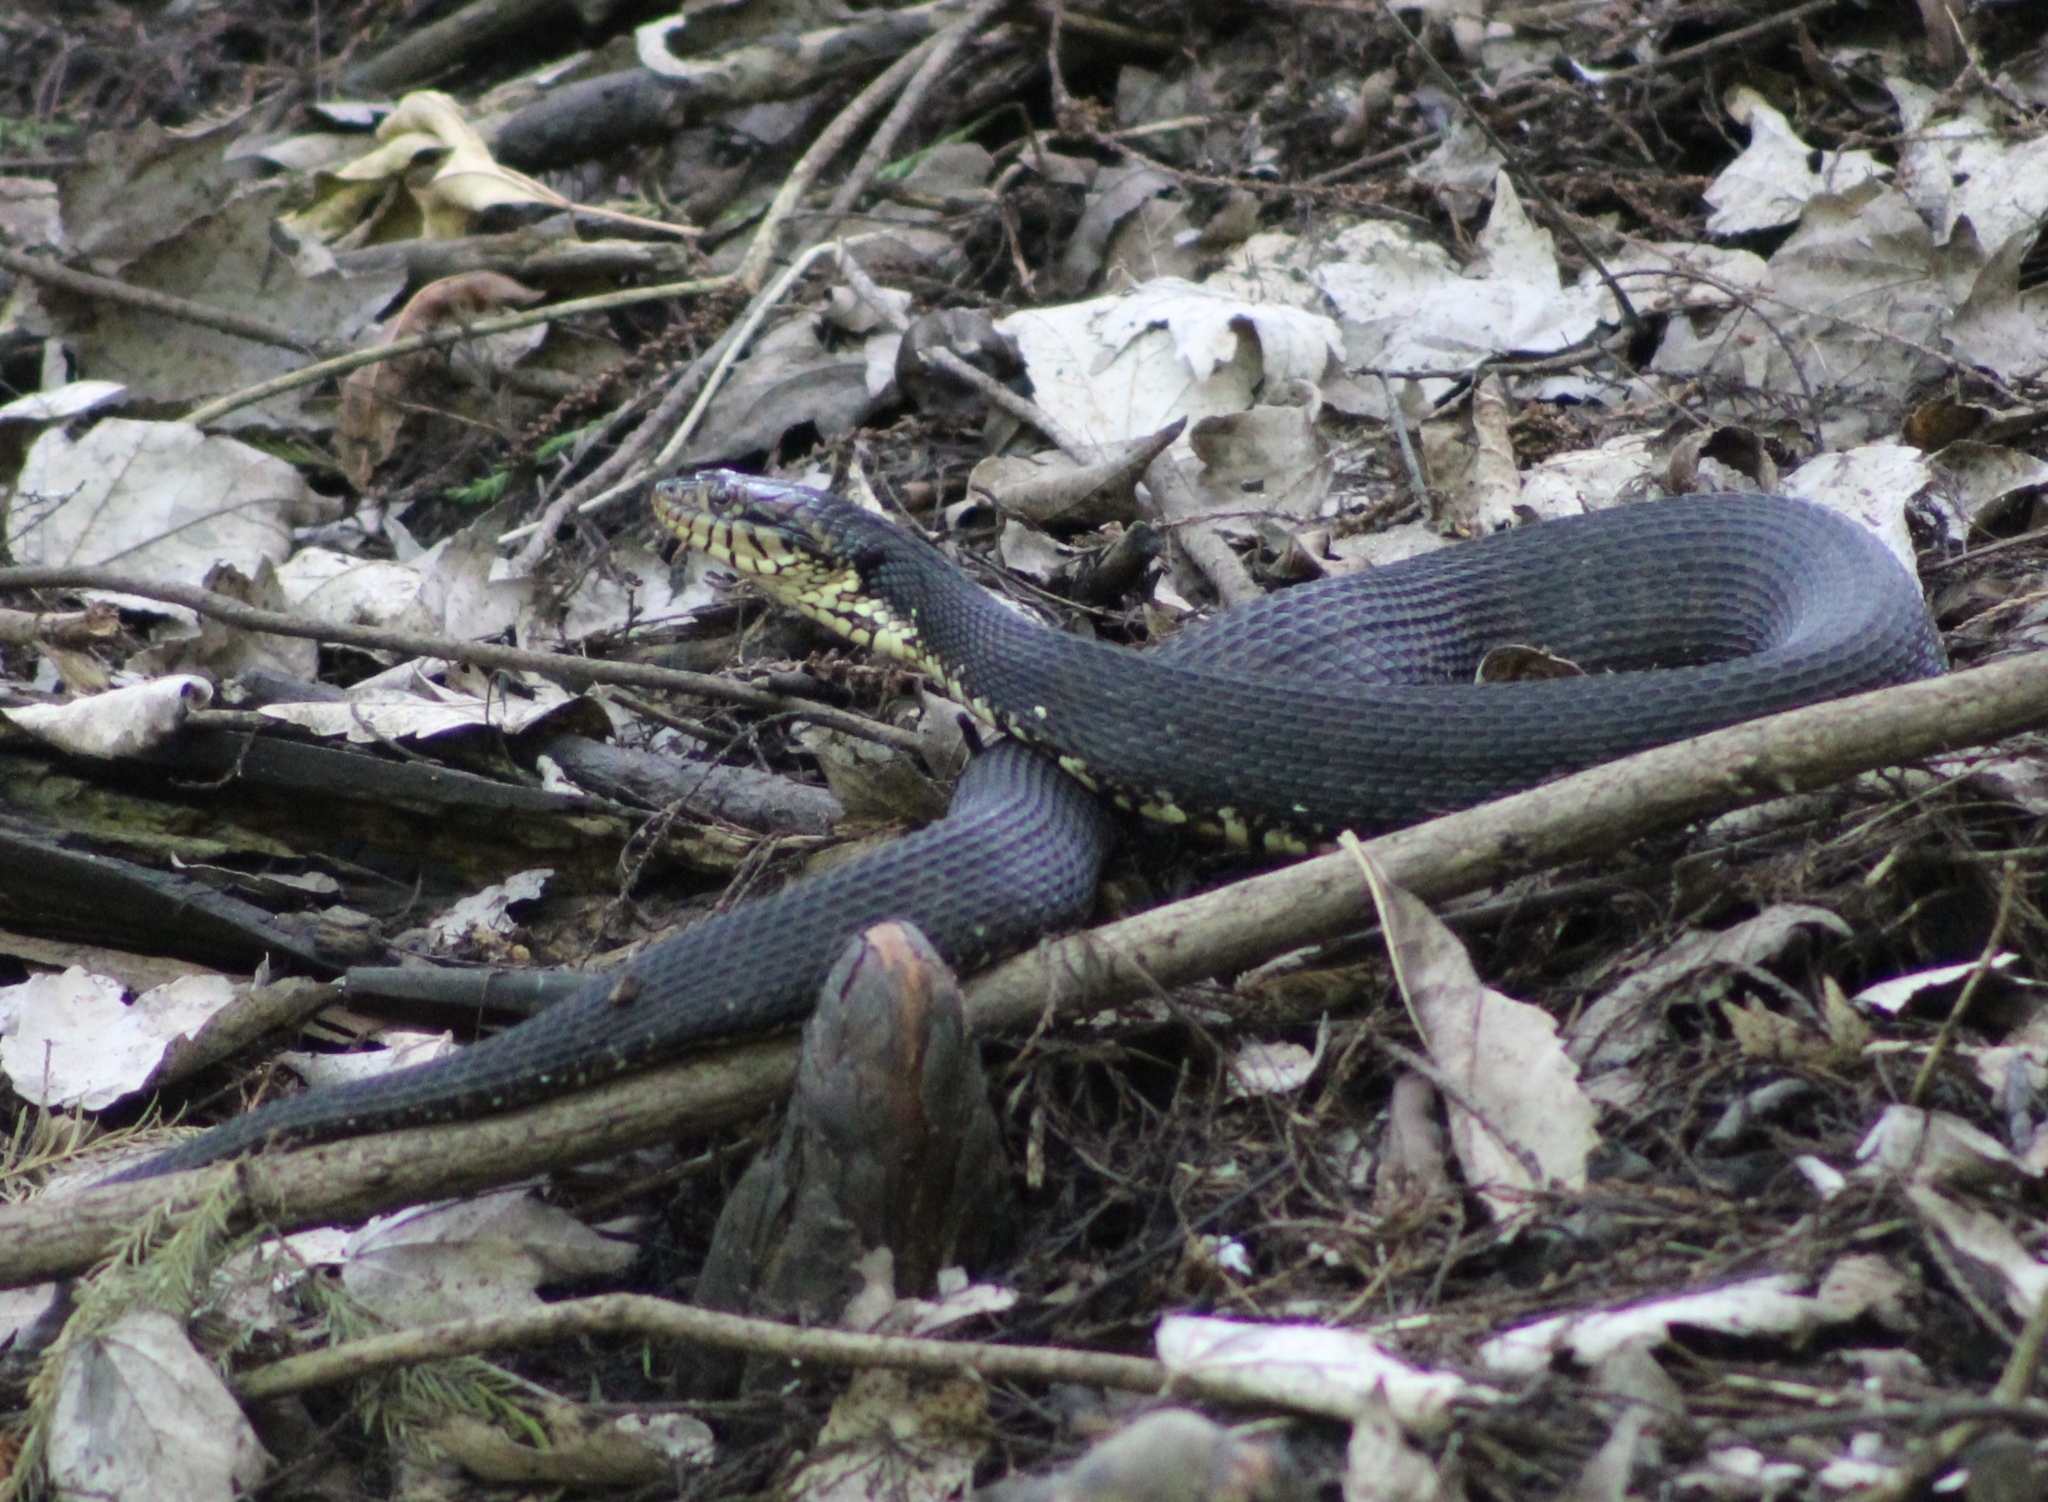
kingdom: Animalia
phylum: Chordata
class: Squamata
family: Colubridae
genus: Nerodia
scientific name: Nerodia fasciata
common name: Southern water snake
